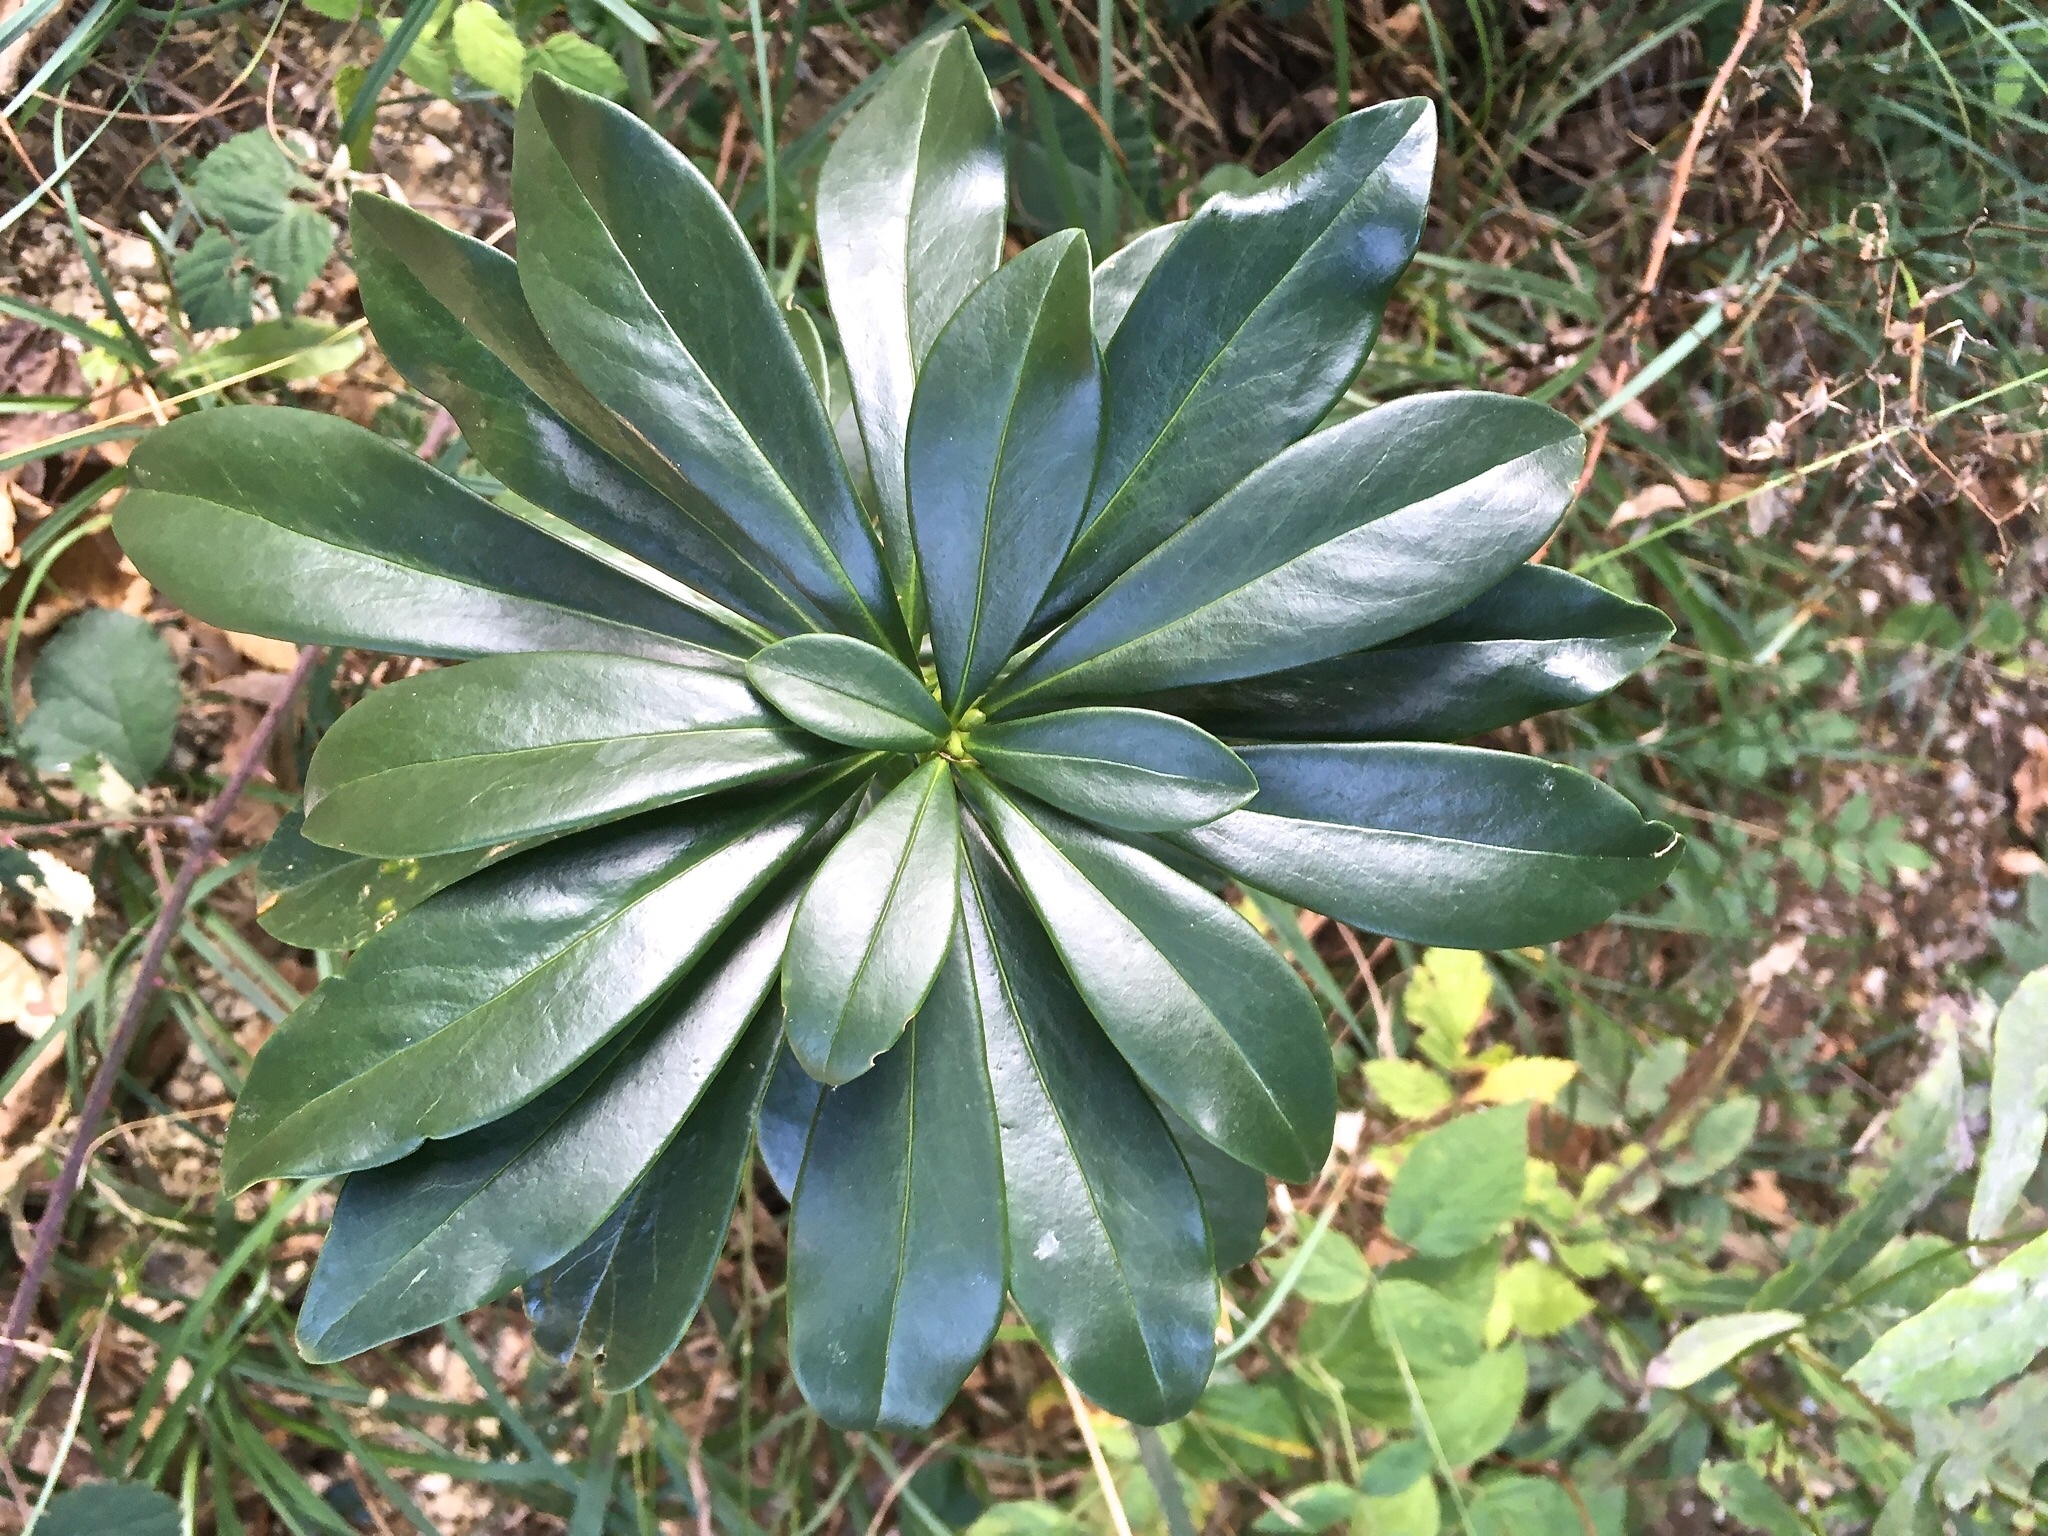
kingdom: Plantae
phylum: Tracheophyta
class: Magnoliopsida
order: Malvales
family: Thymelaeaceae
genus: Daphne
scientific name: Daphne laureola
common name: Spurge-laurel
